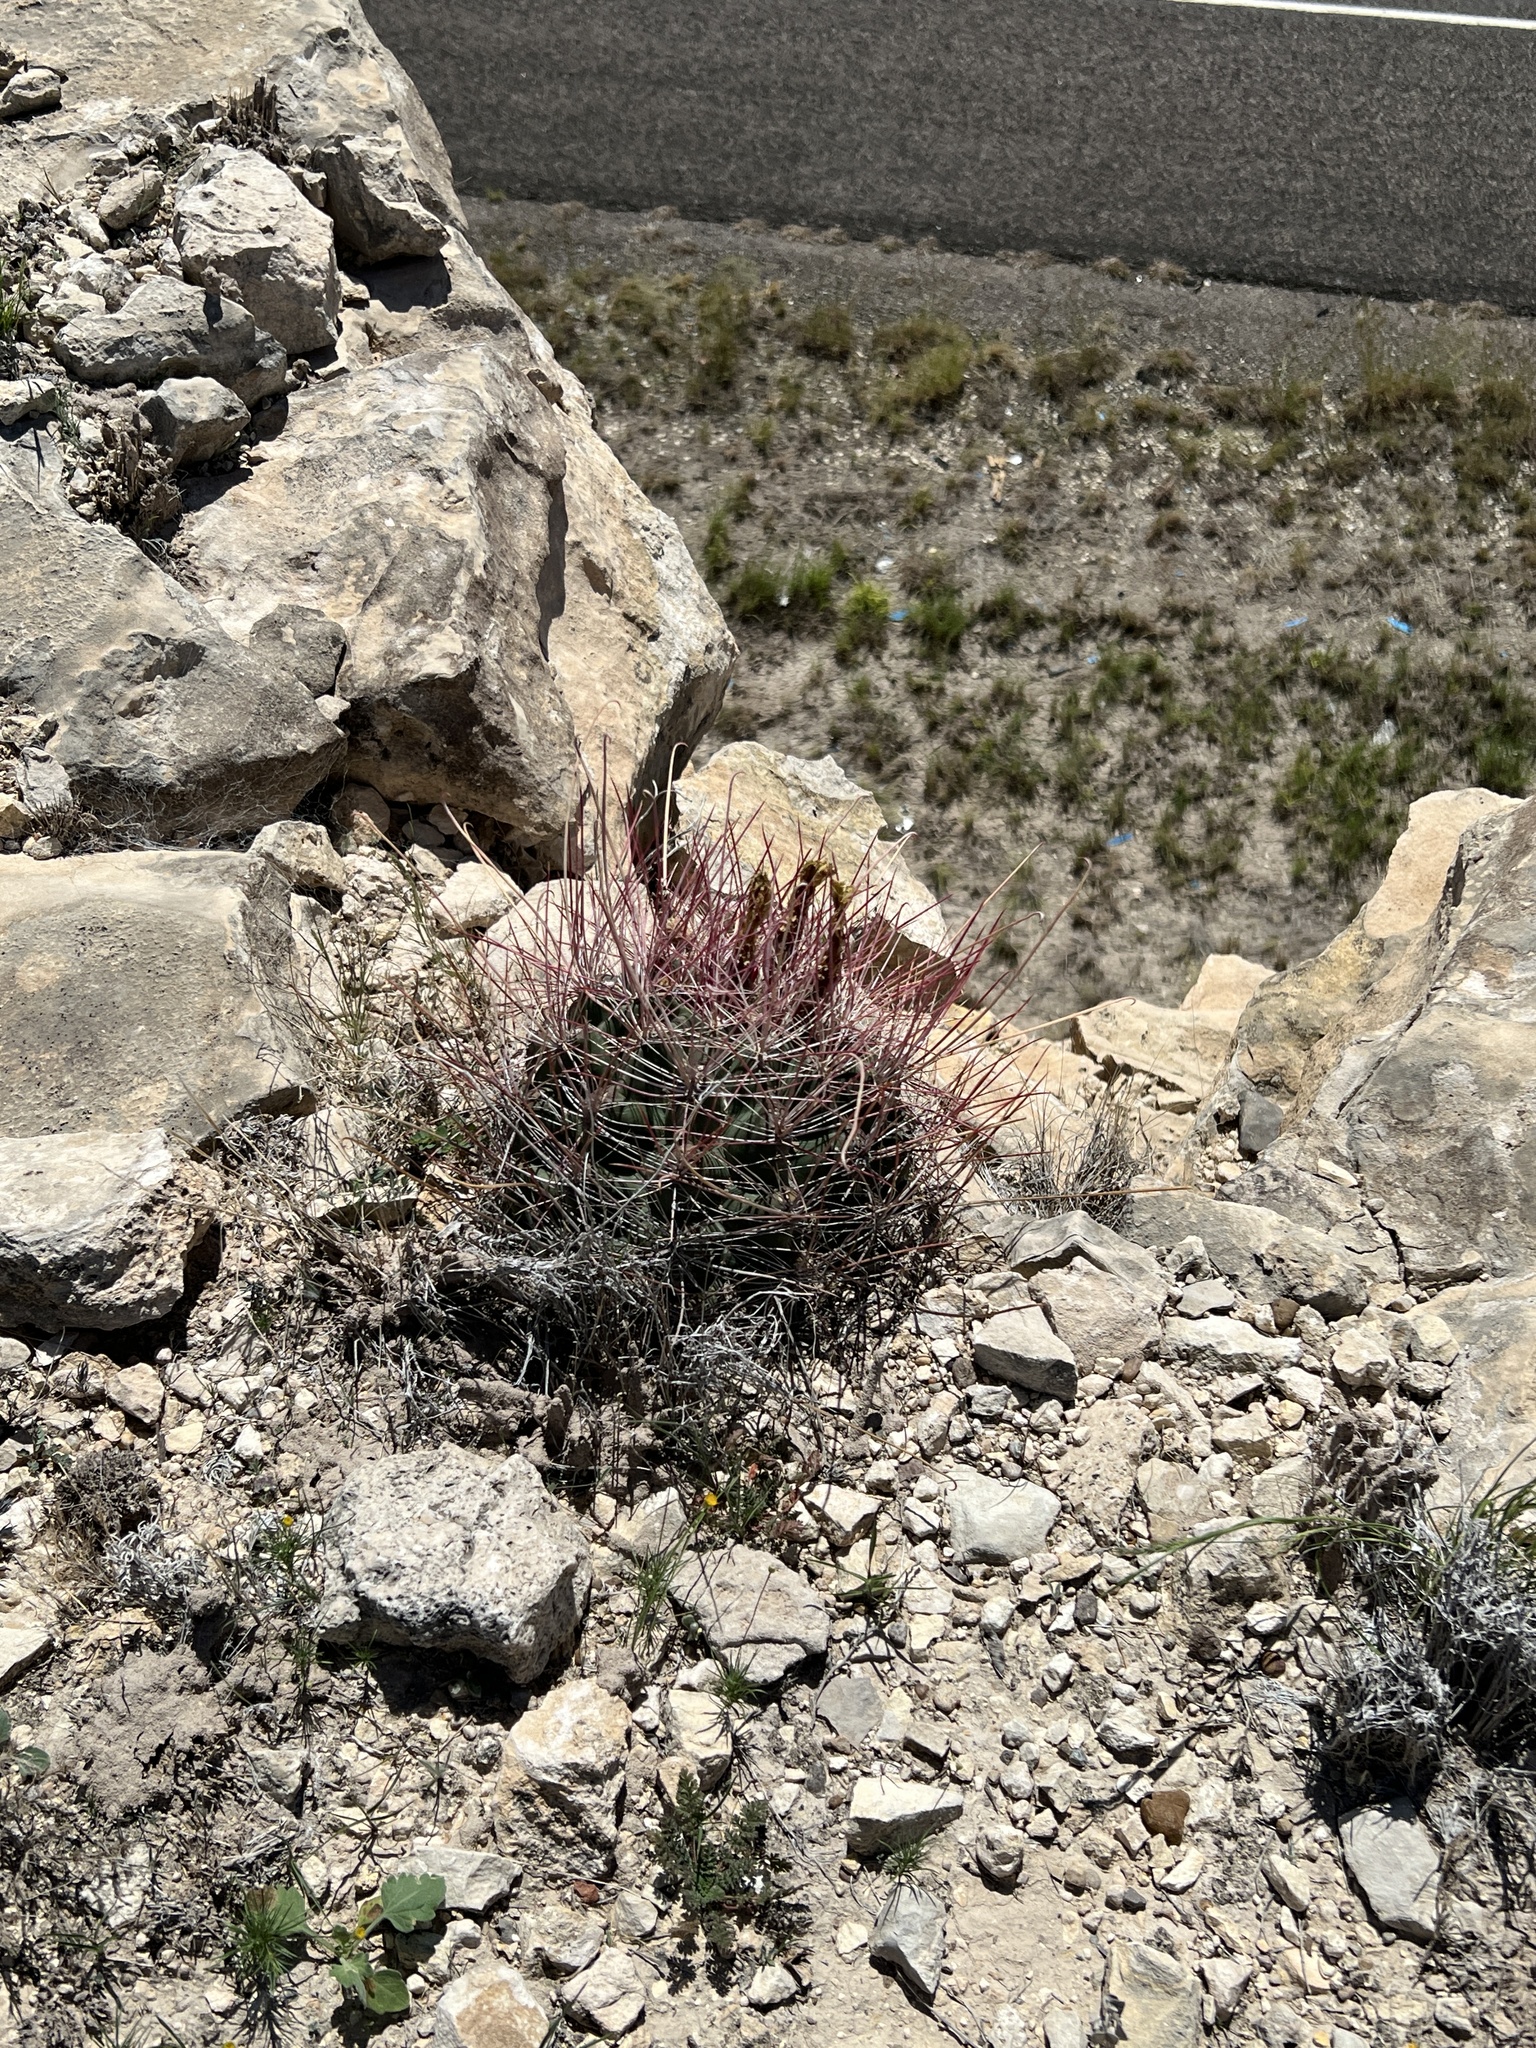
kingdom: Plantae
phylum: Tracheophyta
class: Magnoliopsida
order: Caryophyllales
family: Cactaceae
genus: Bisnaga
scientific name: Bisnaga hamatacantha
